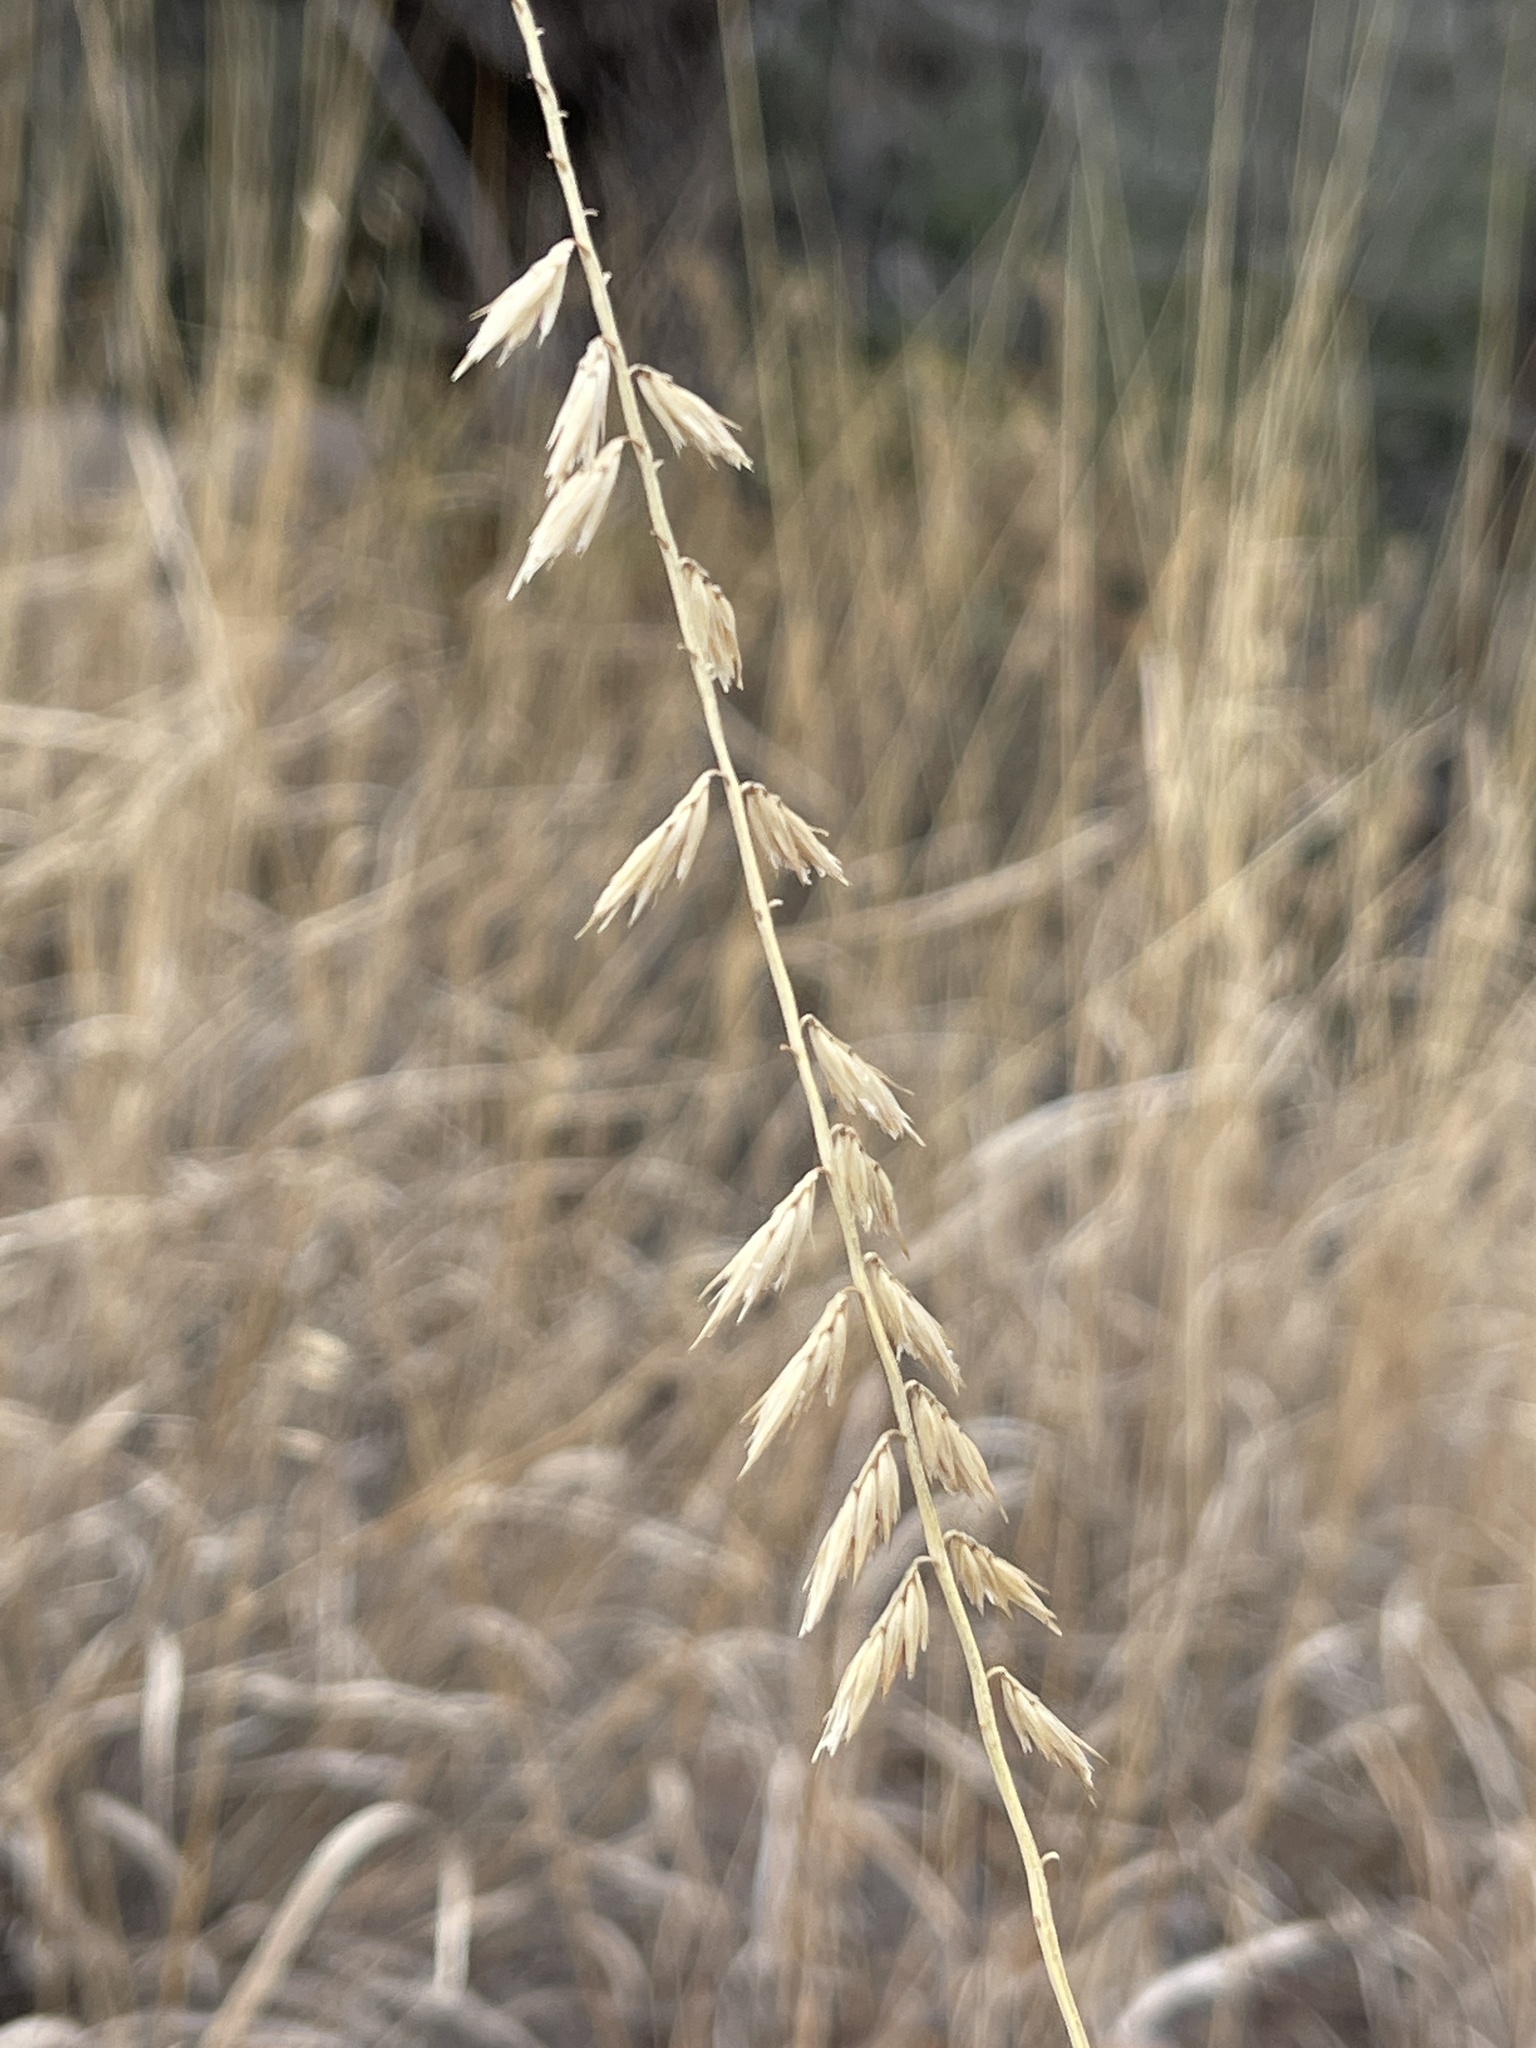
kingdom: Plantae
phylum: Tracheophyta
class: Liliopsida
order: Poales
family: Poaceae
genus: Bouteloua
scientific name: Bouteloua curtipendula
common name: Side-oats grama
